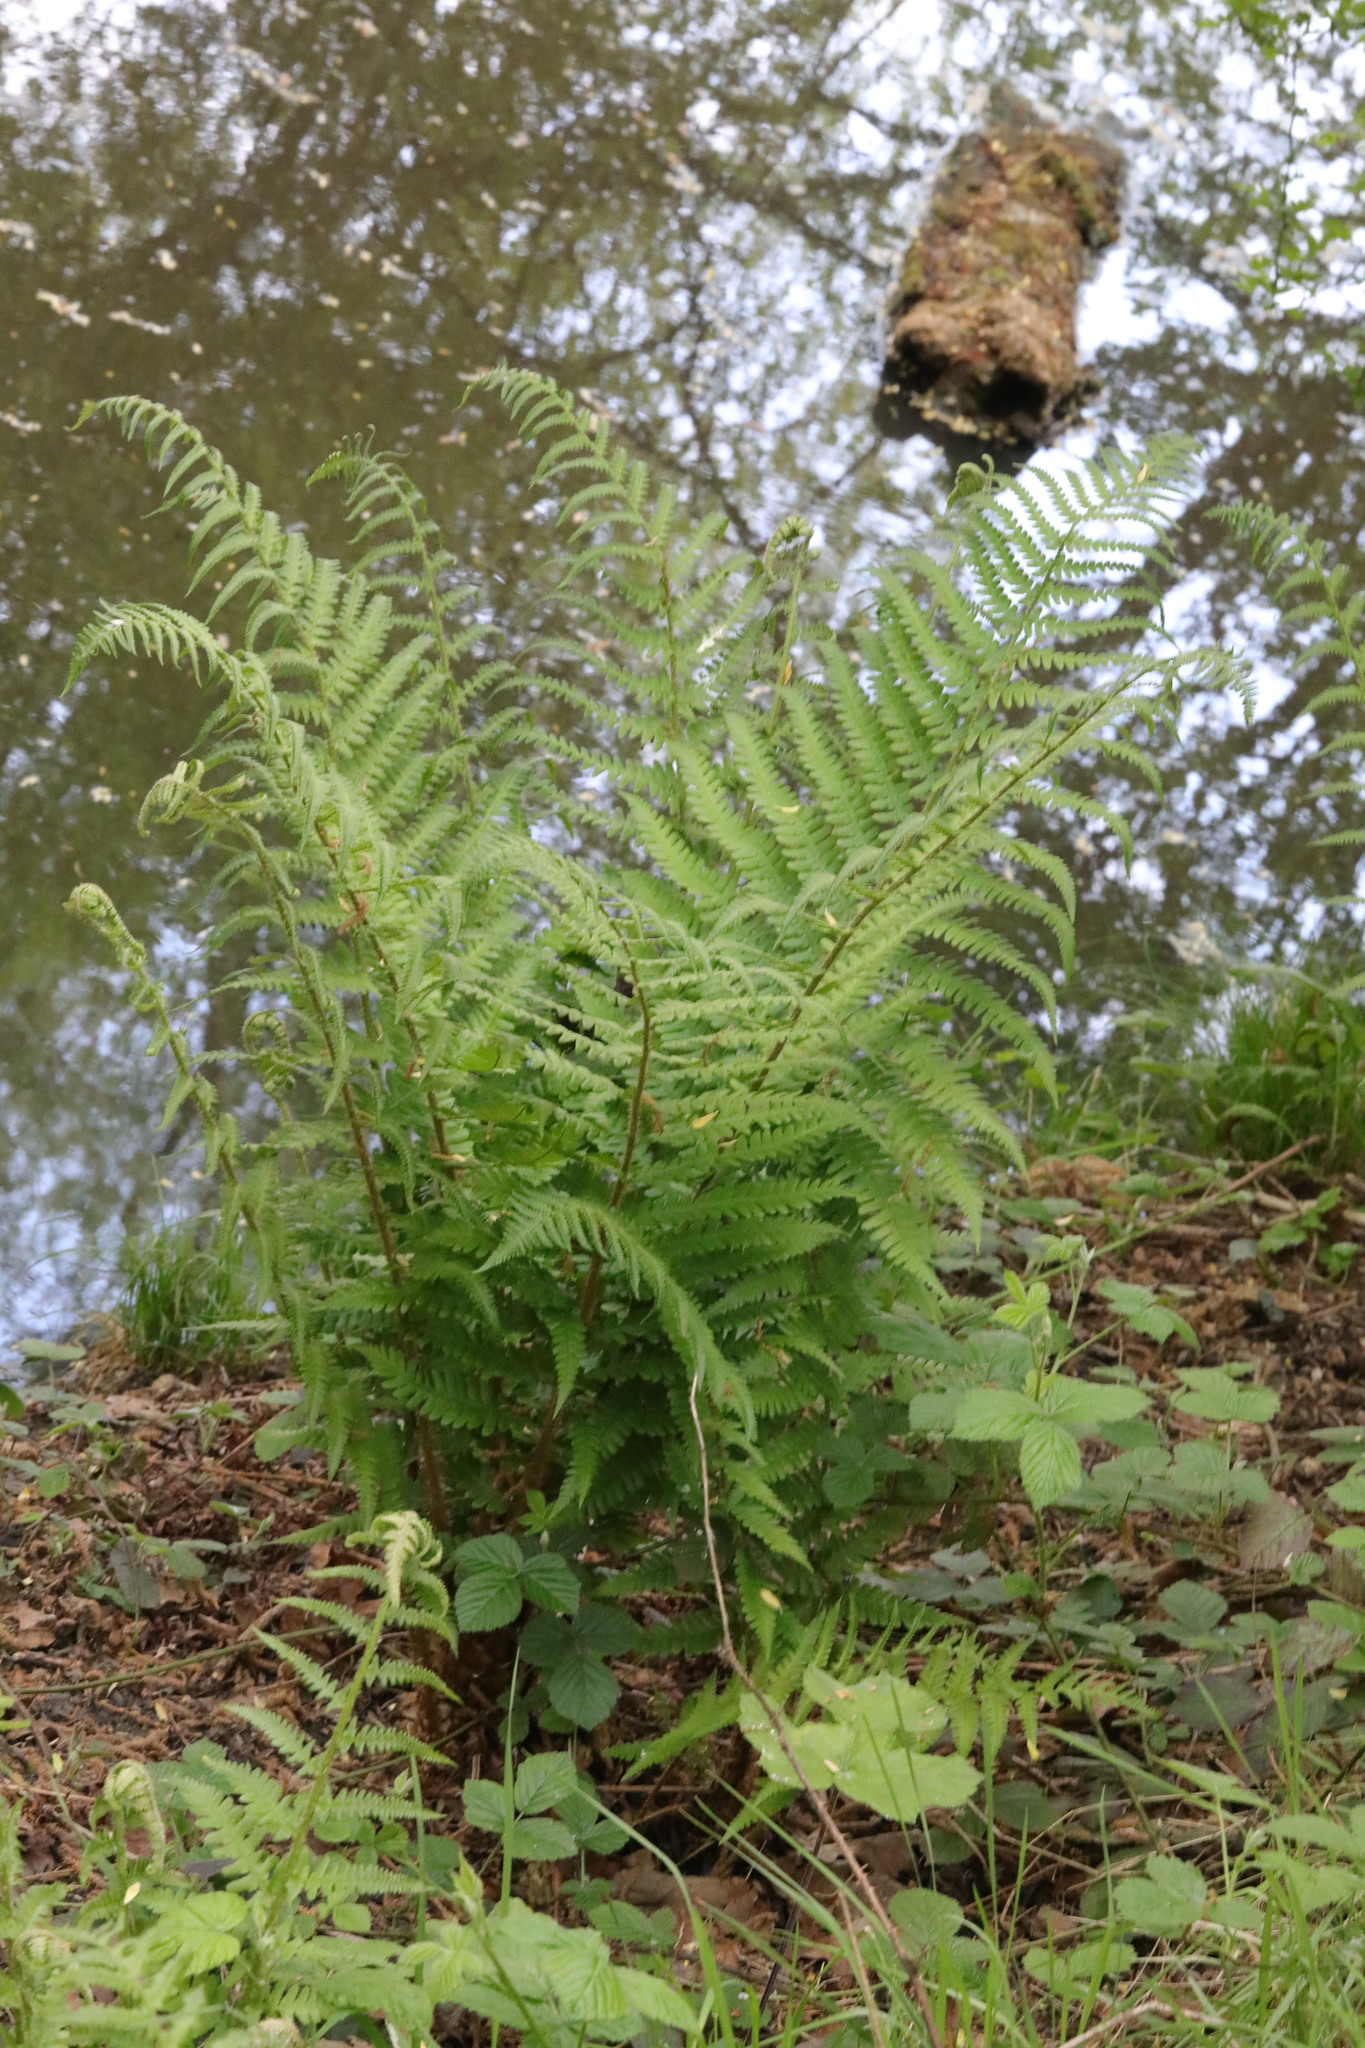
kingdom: Plantae
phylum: Tracheophyta
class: Polypodiopsida
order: Polypodiales
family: Dryopteridaceae
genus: Dryopteris
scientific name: Dryopteris filix-mas
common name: Male fern
